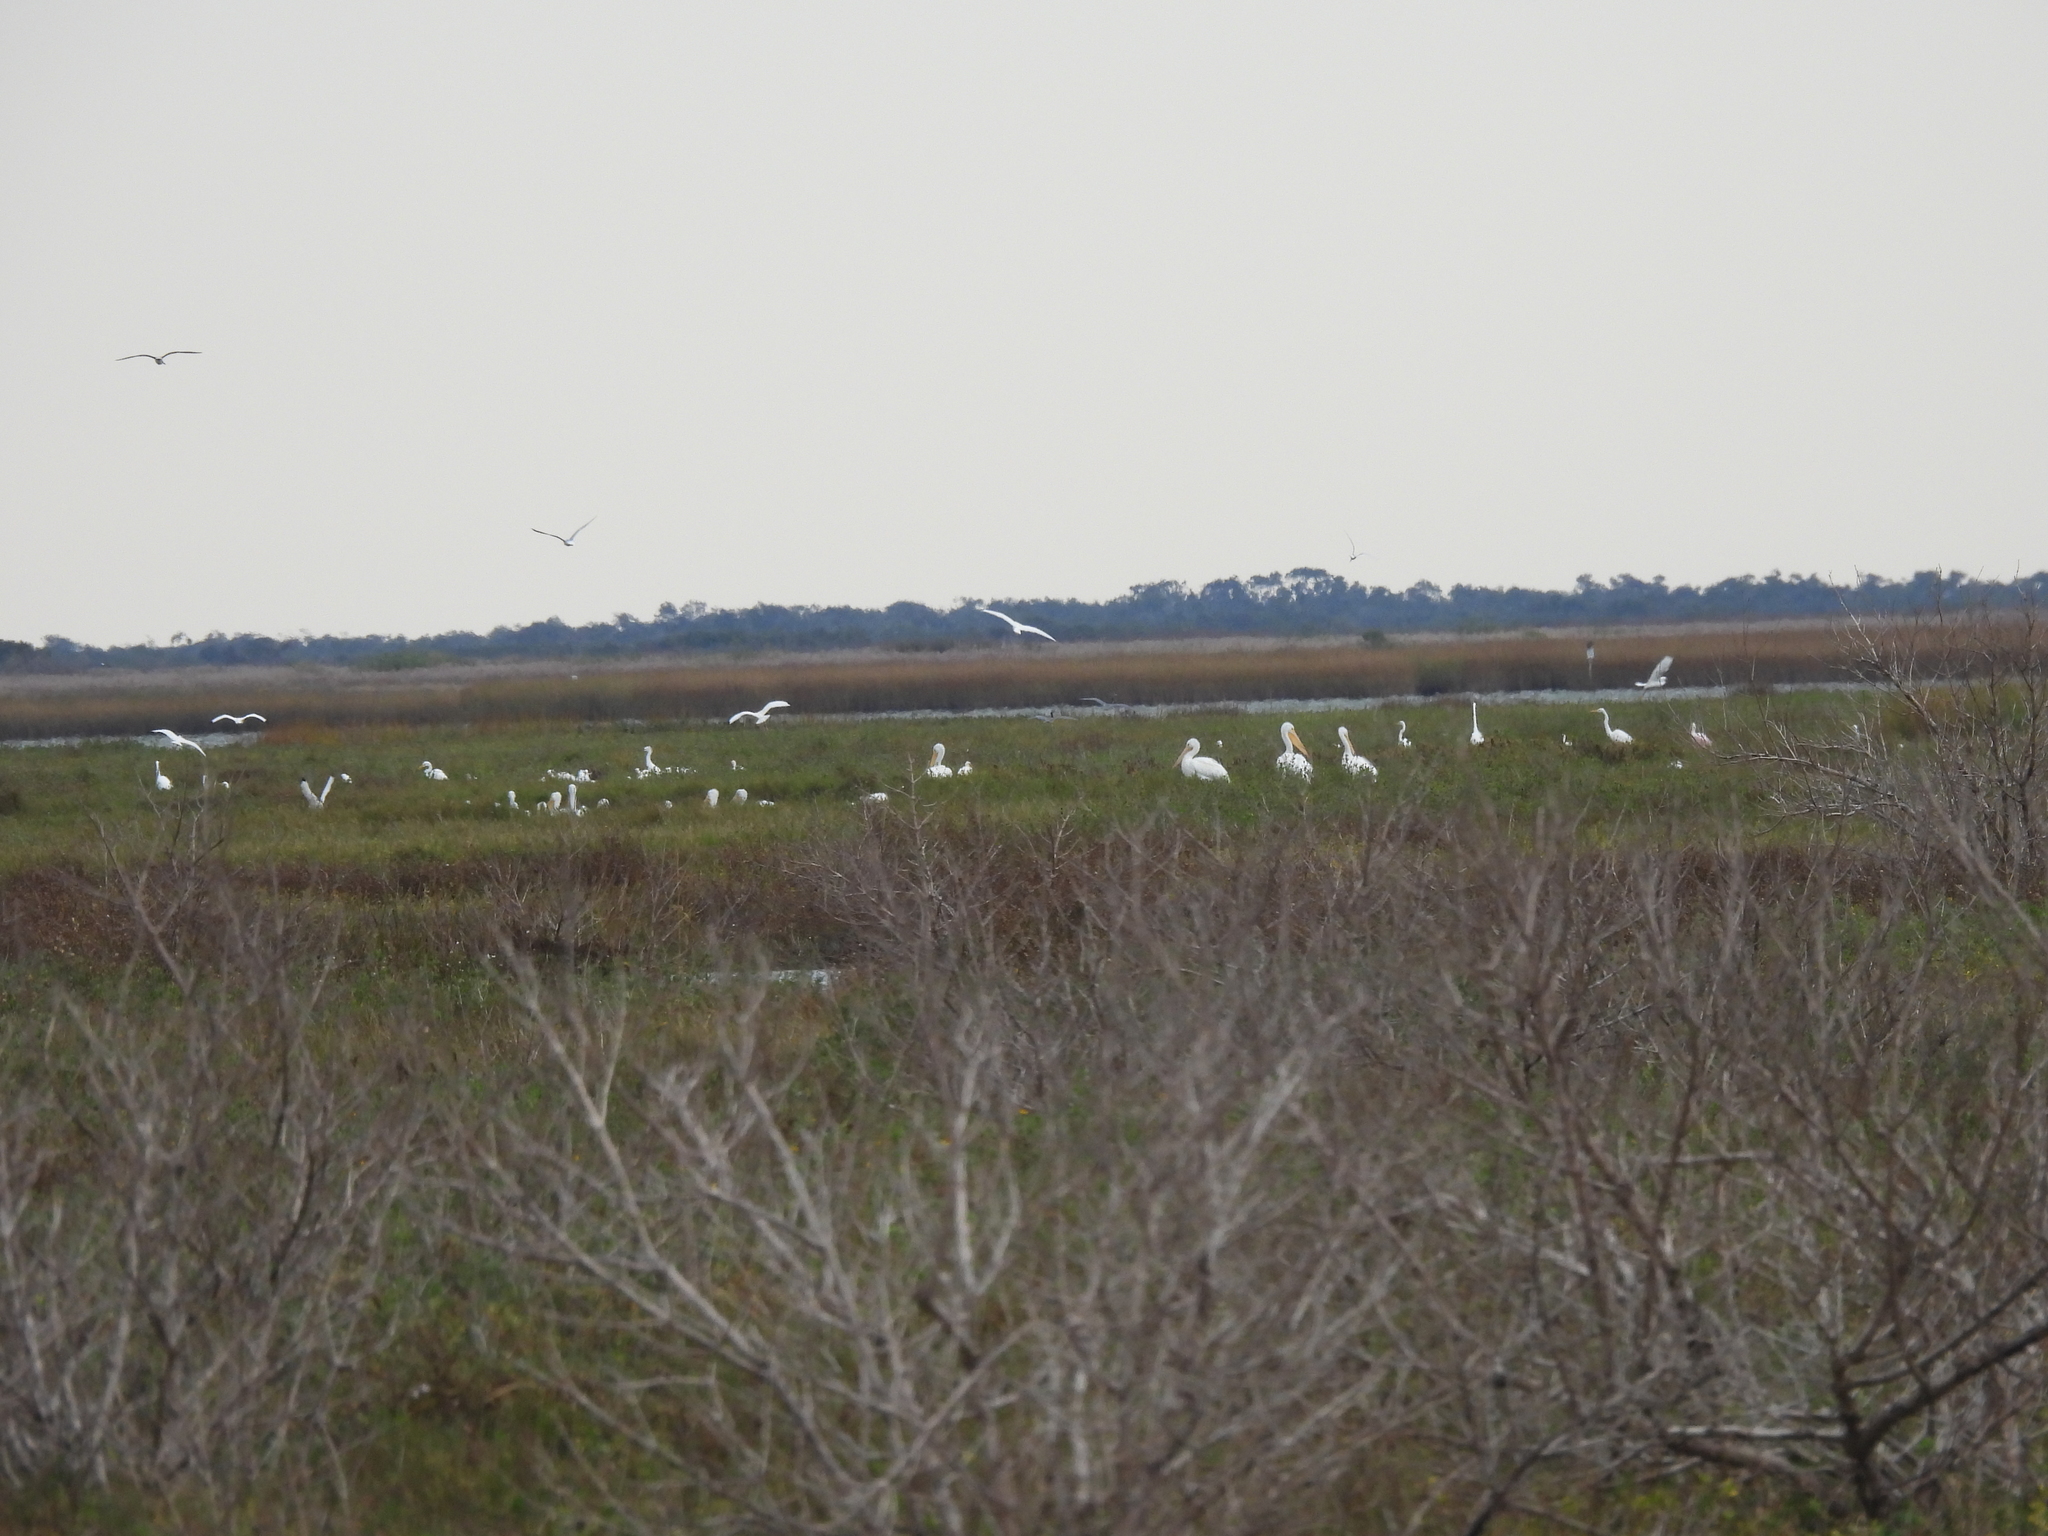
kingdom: Animalia
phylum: Chordata
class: Aves
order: Pelecaniformes
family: Pelecanidae
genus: Pelecanus
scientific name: Pelecanus erythrorhynchos
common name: American white pelican
